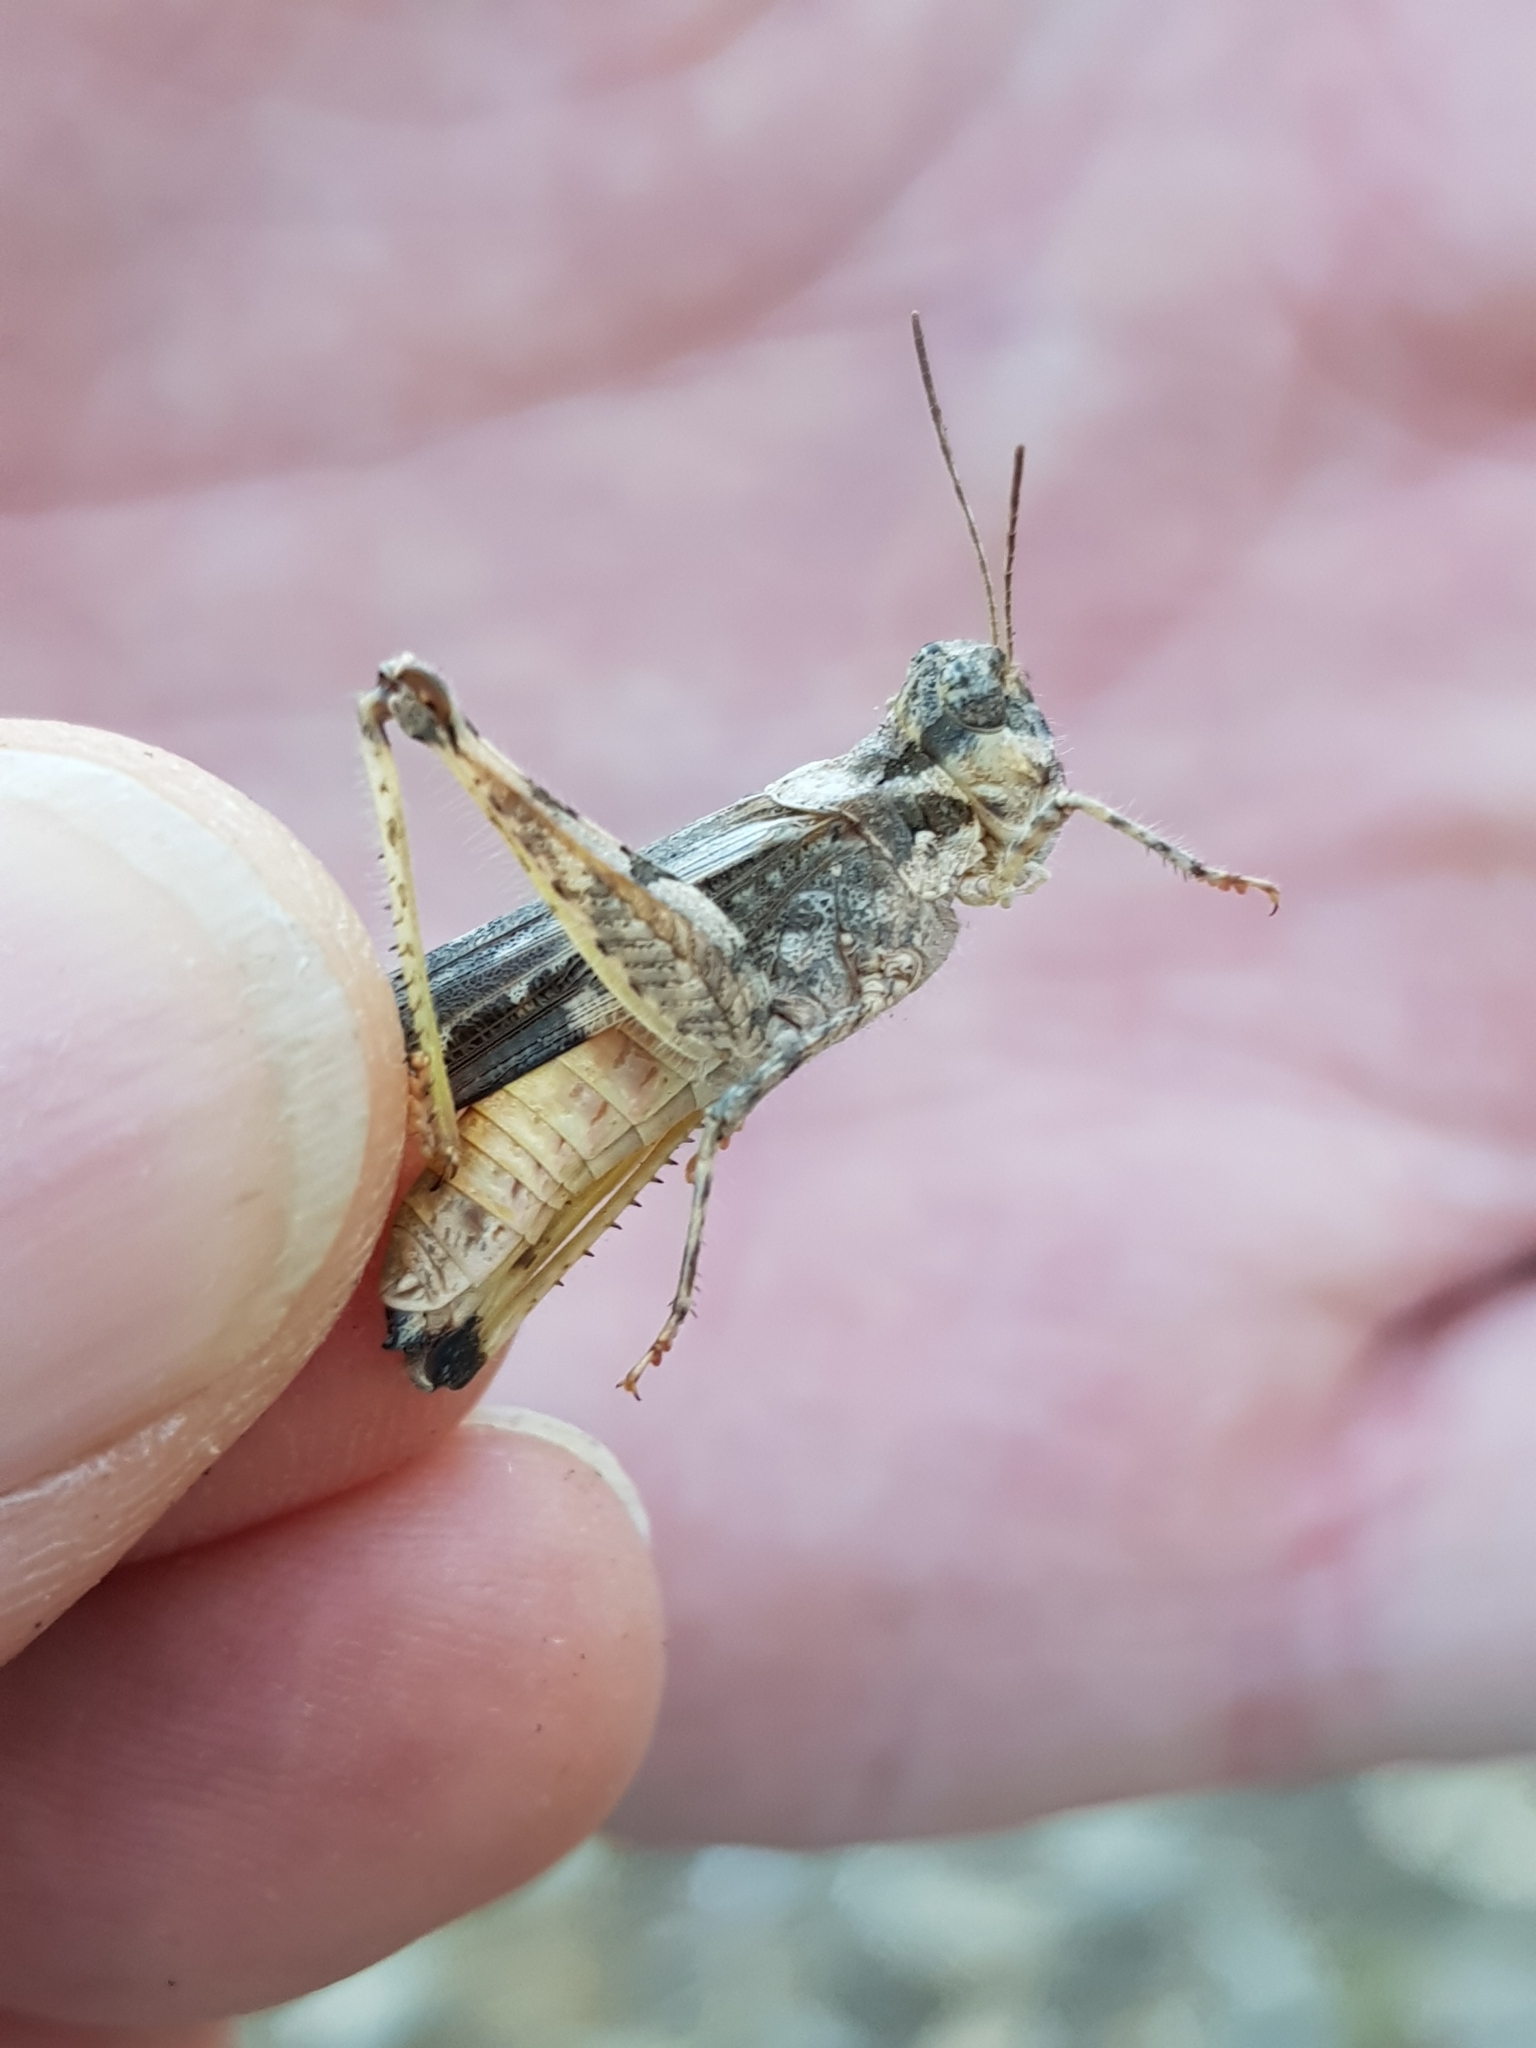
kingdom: Animalia
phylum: Arthropoda
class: Insecta
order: Orthoptera
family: Acrididae
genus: Acrotylus
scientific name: Acrotylus patruelis
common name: Slender burrowing grasshopper
